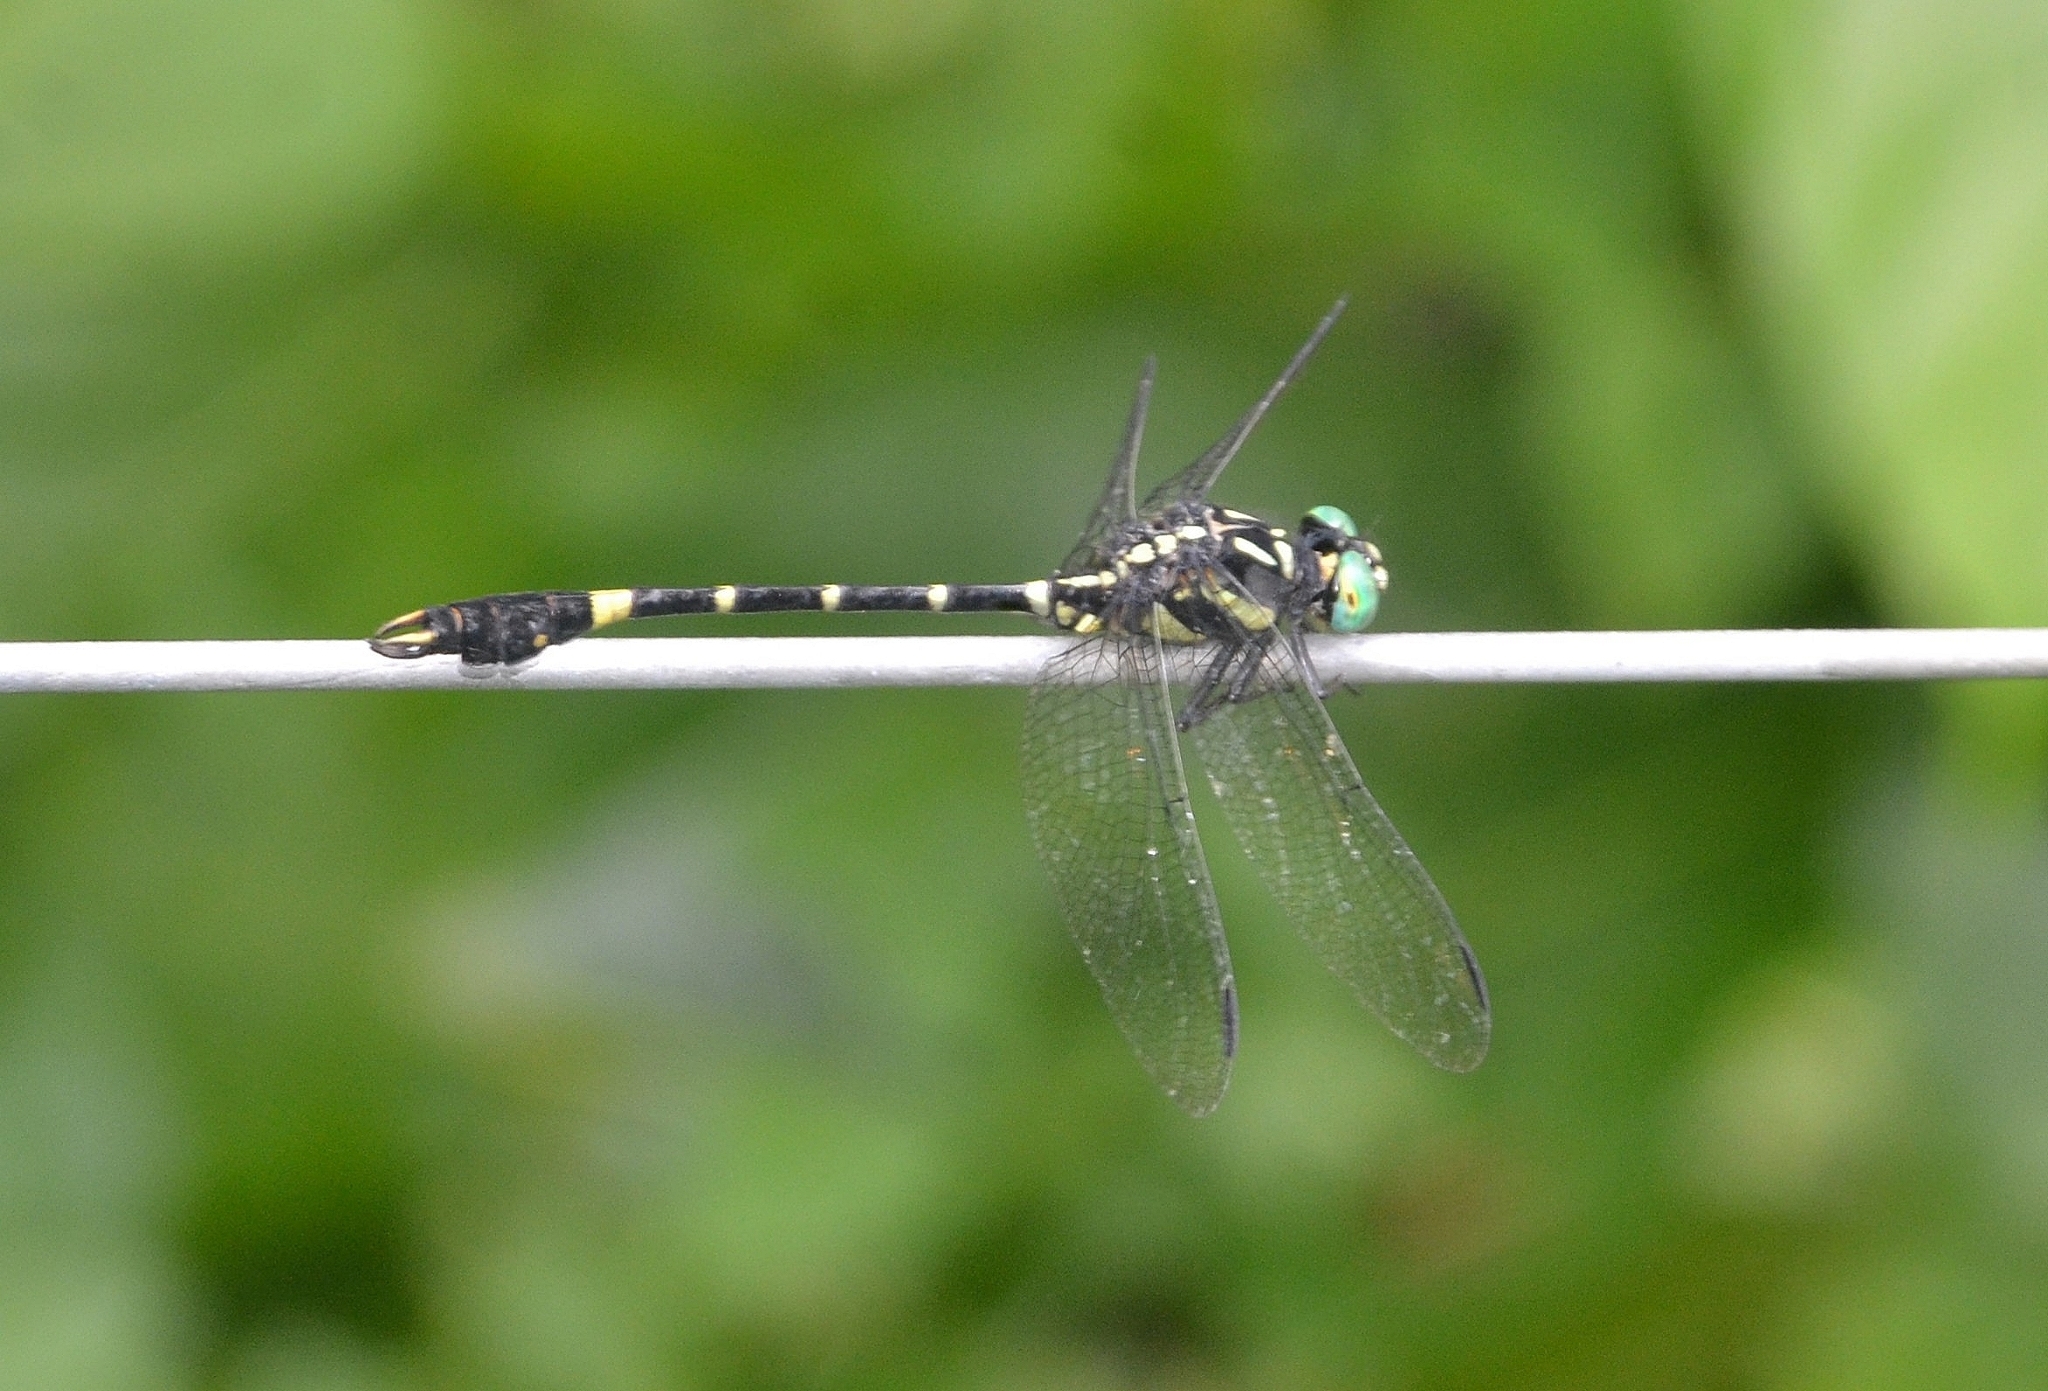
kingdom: Animalia
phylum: Arthropoda
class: Insecta
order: Odonata
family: Gomphidae
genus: Melligomphus
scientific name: Melligomphus acinaces
